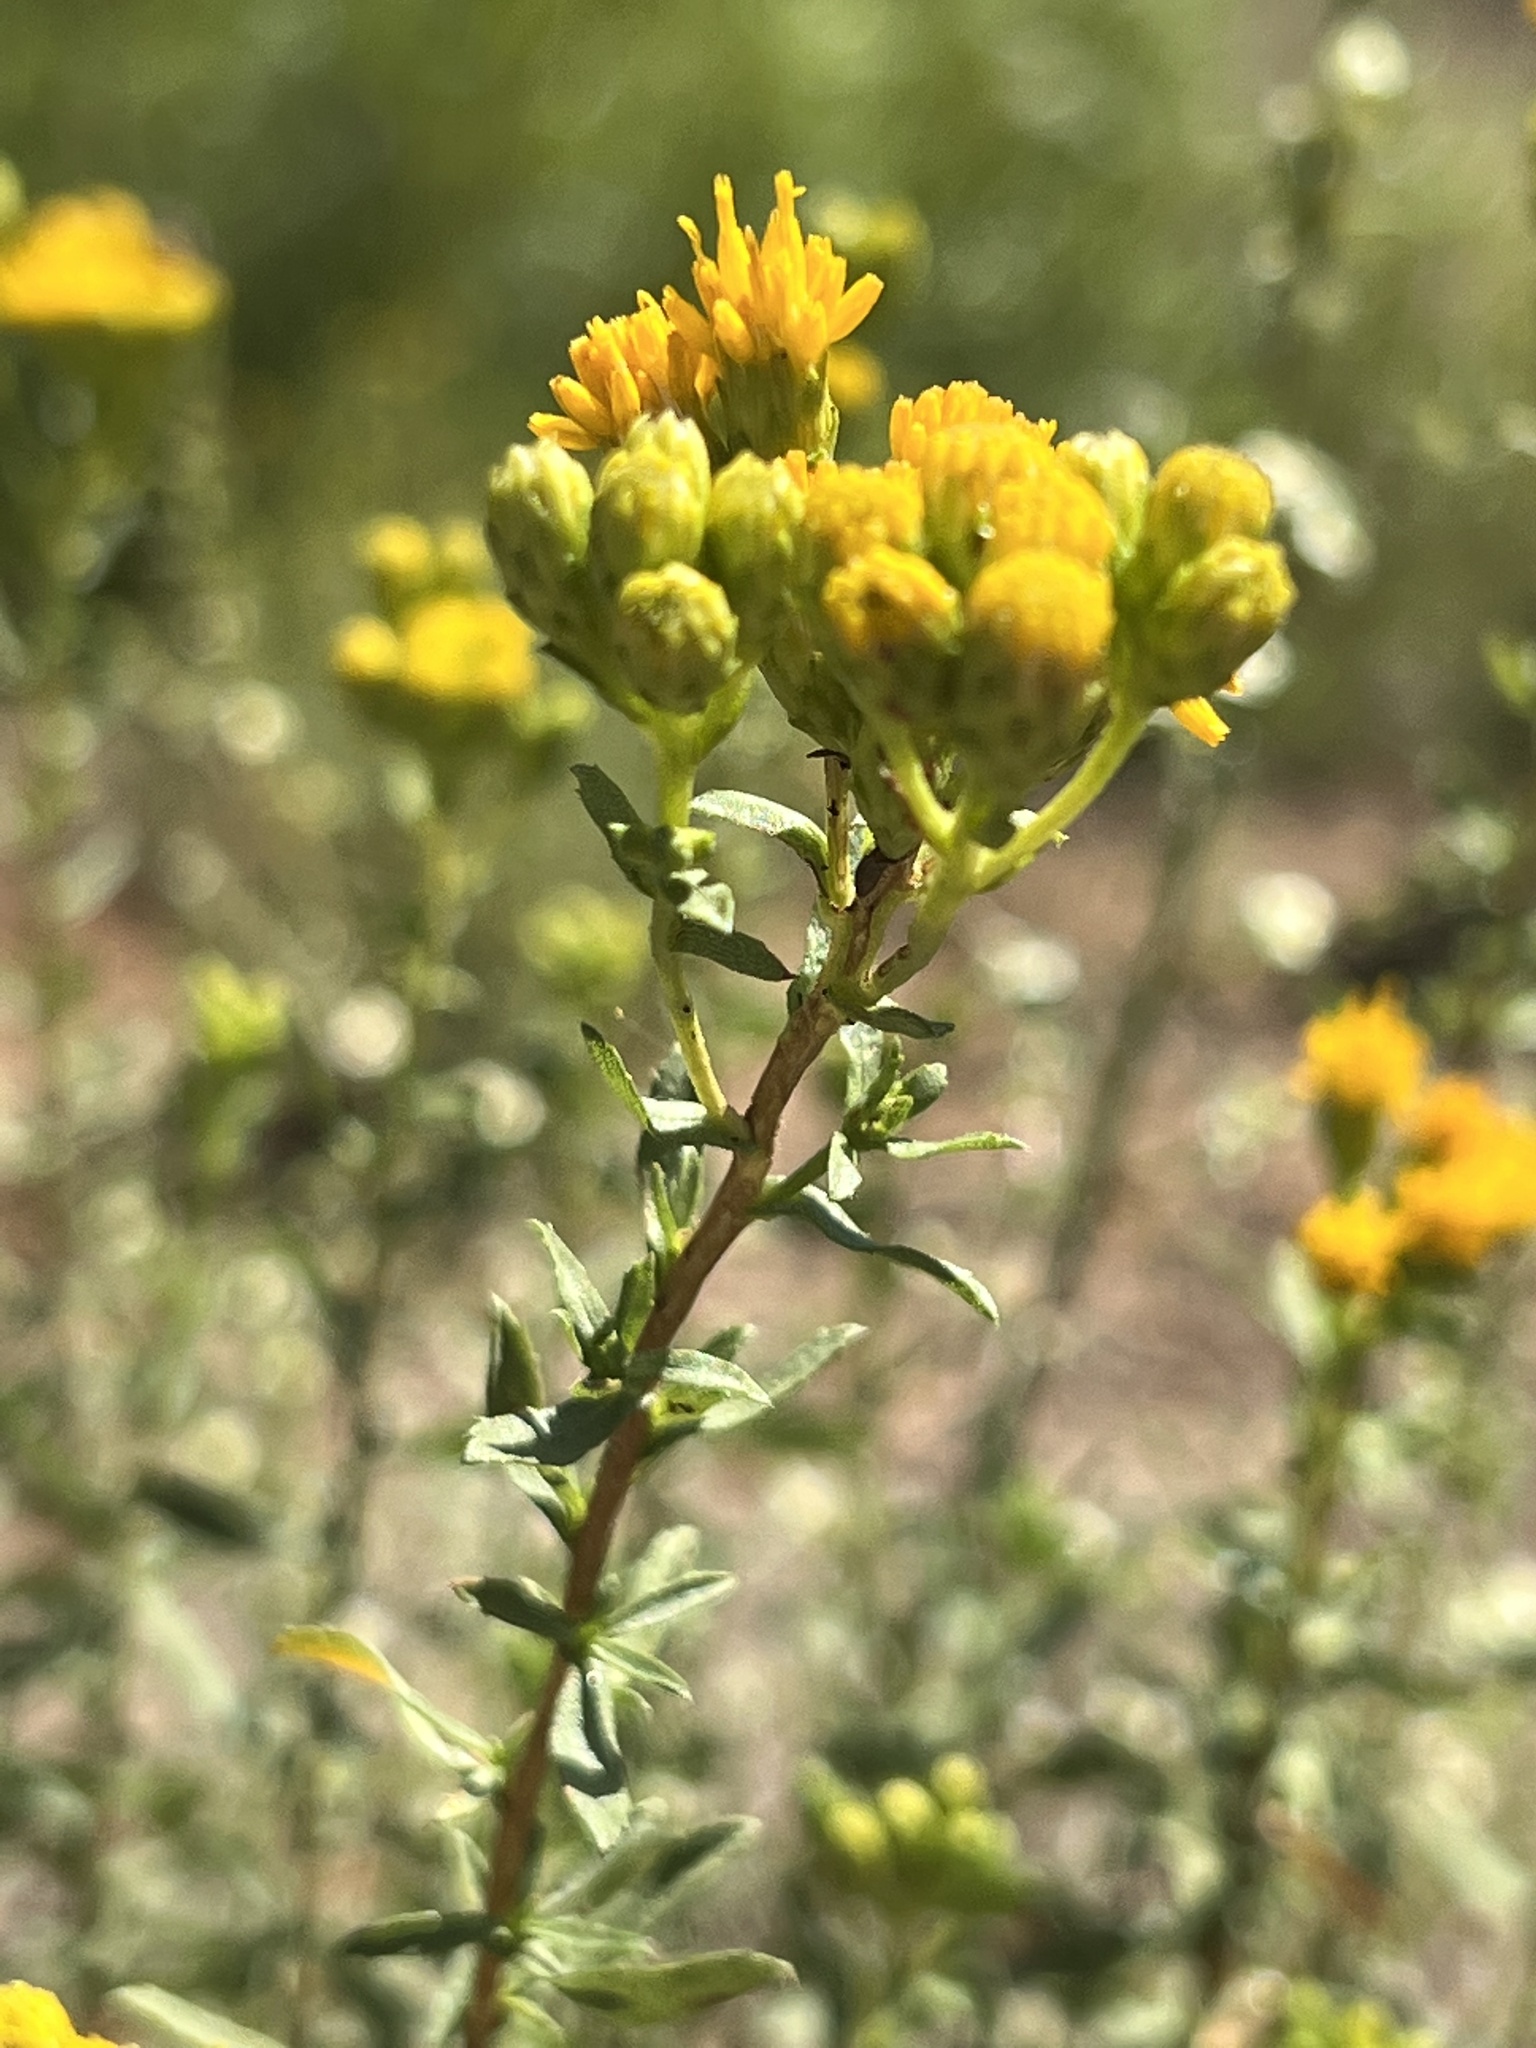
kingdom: Plantae
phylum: Tracheophyta
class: Magnoliopsida
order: Asterales
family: Asteraceae
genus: Isocoma
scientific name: Isocoma menziesii
